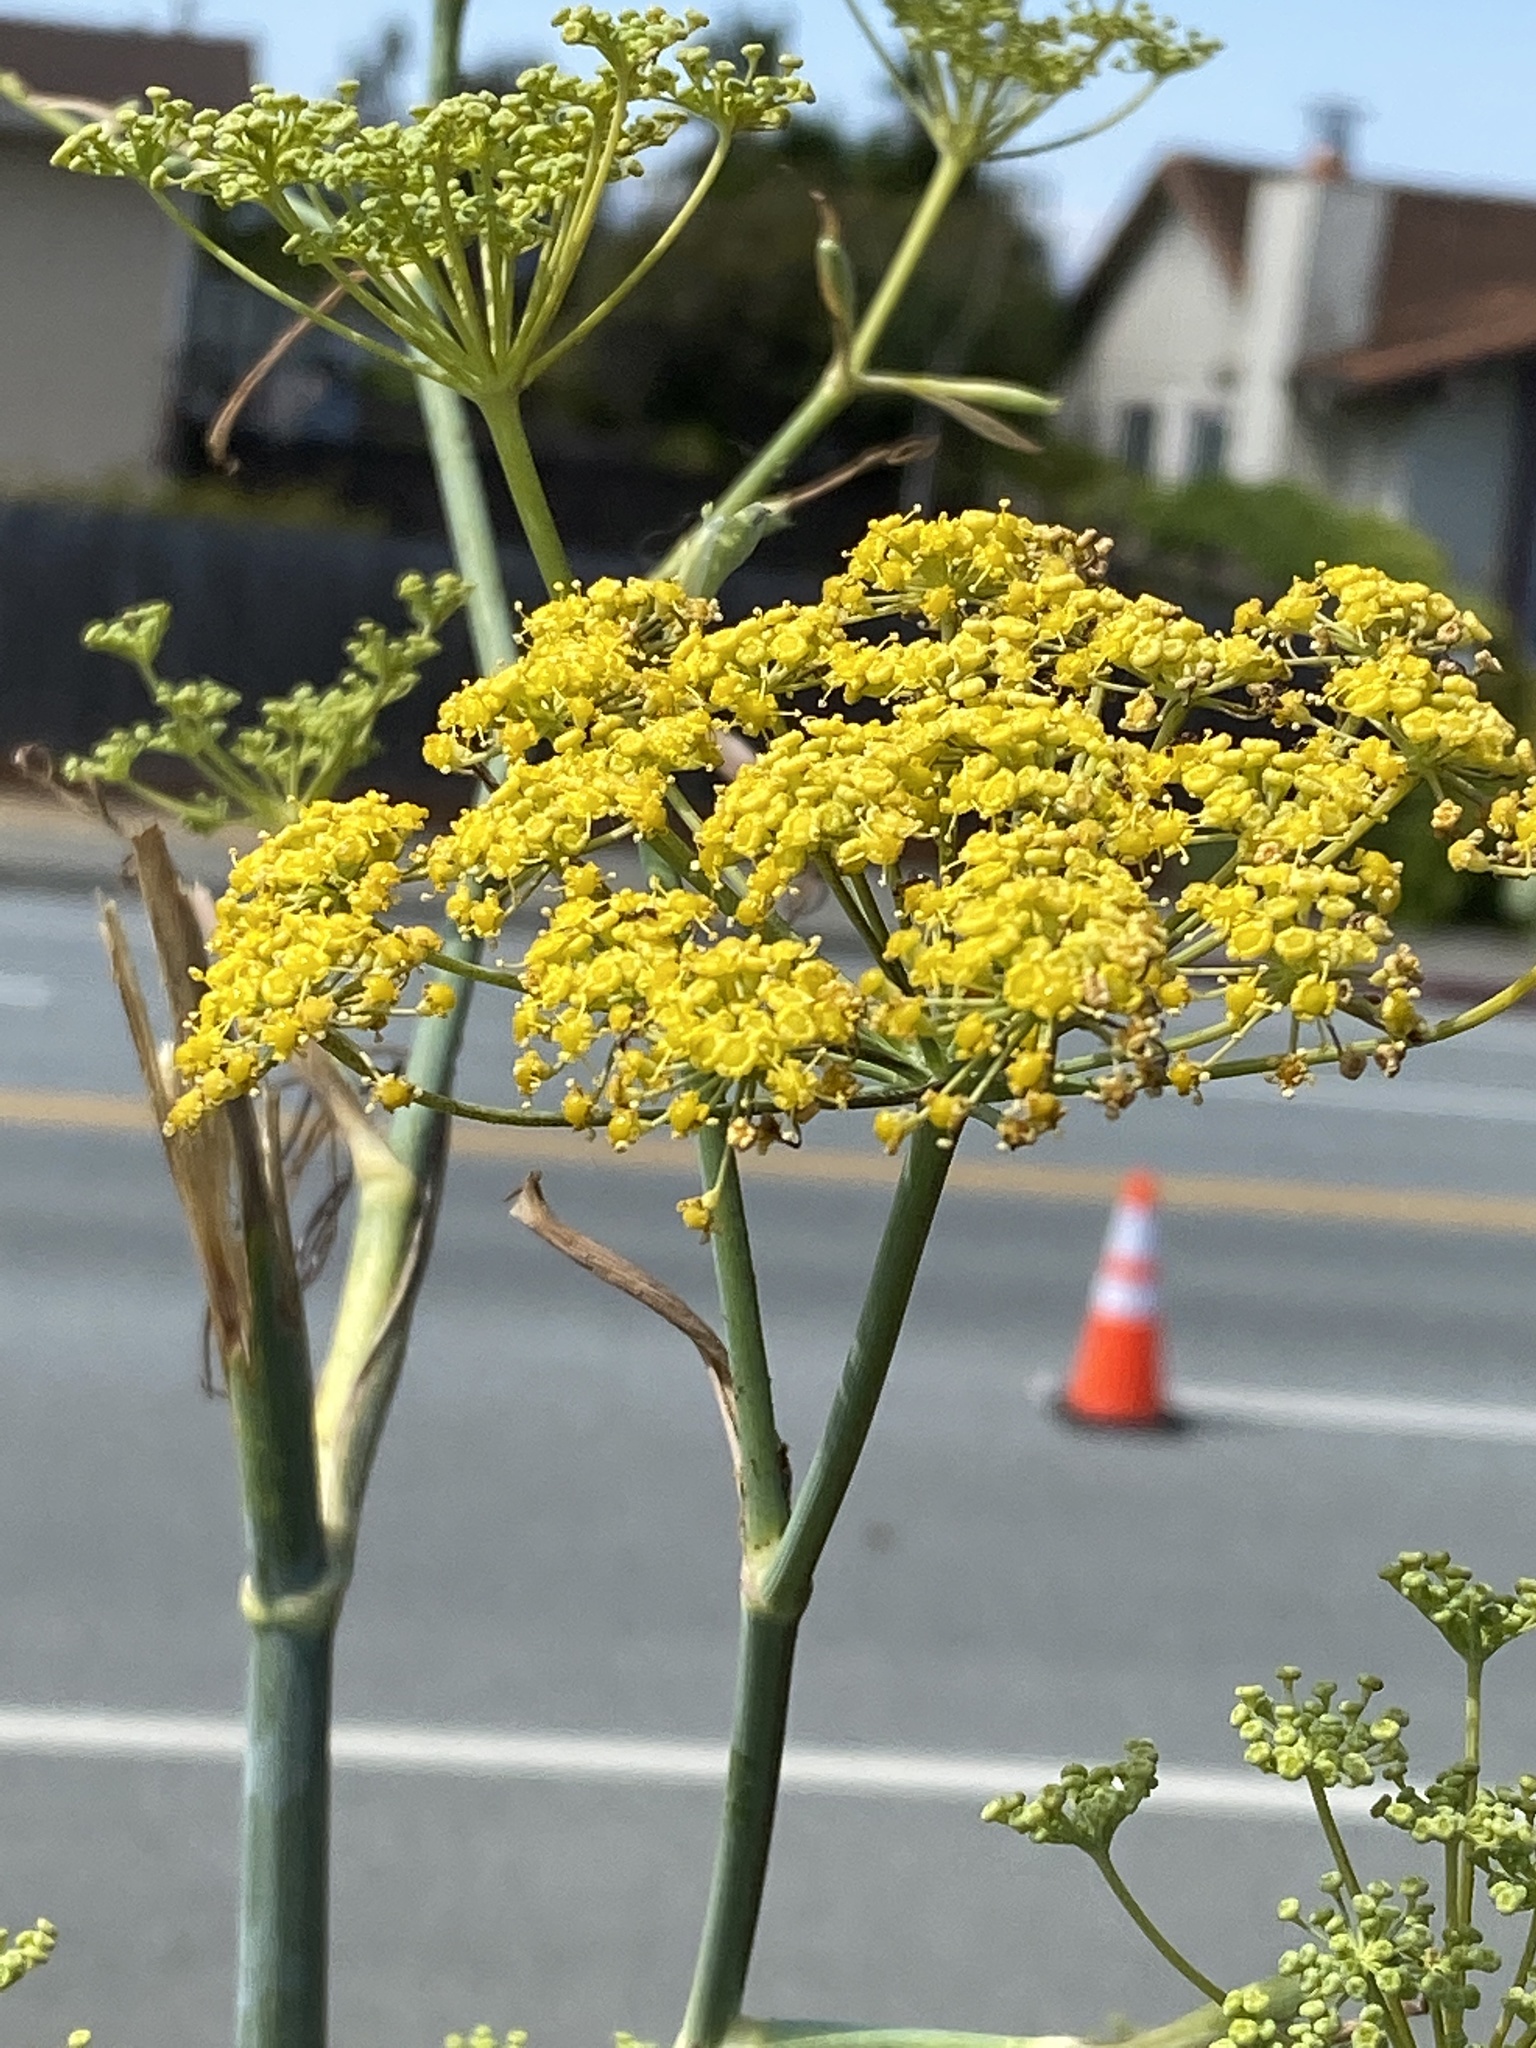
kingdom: Plantae
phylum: Tracheophyta
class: Magnoliopsida
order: Apiales
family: Apiaceae
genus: Foeniculum
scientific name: Foeniculum vulgare
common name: Fennel
